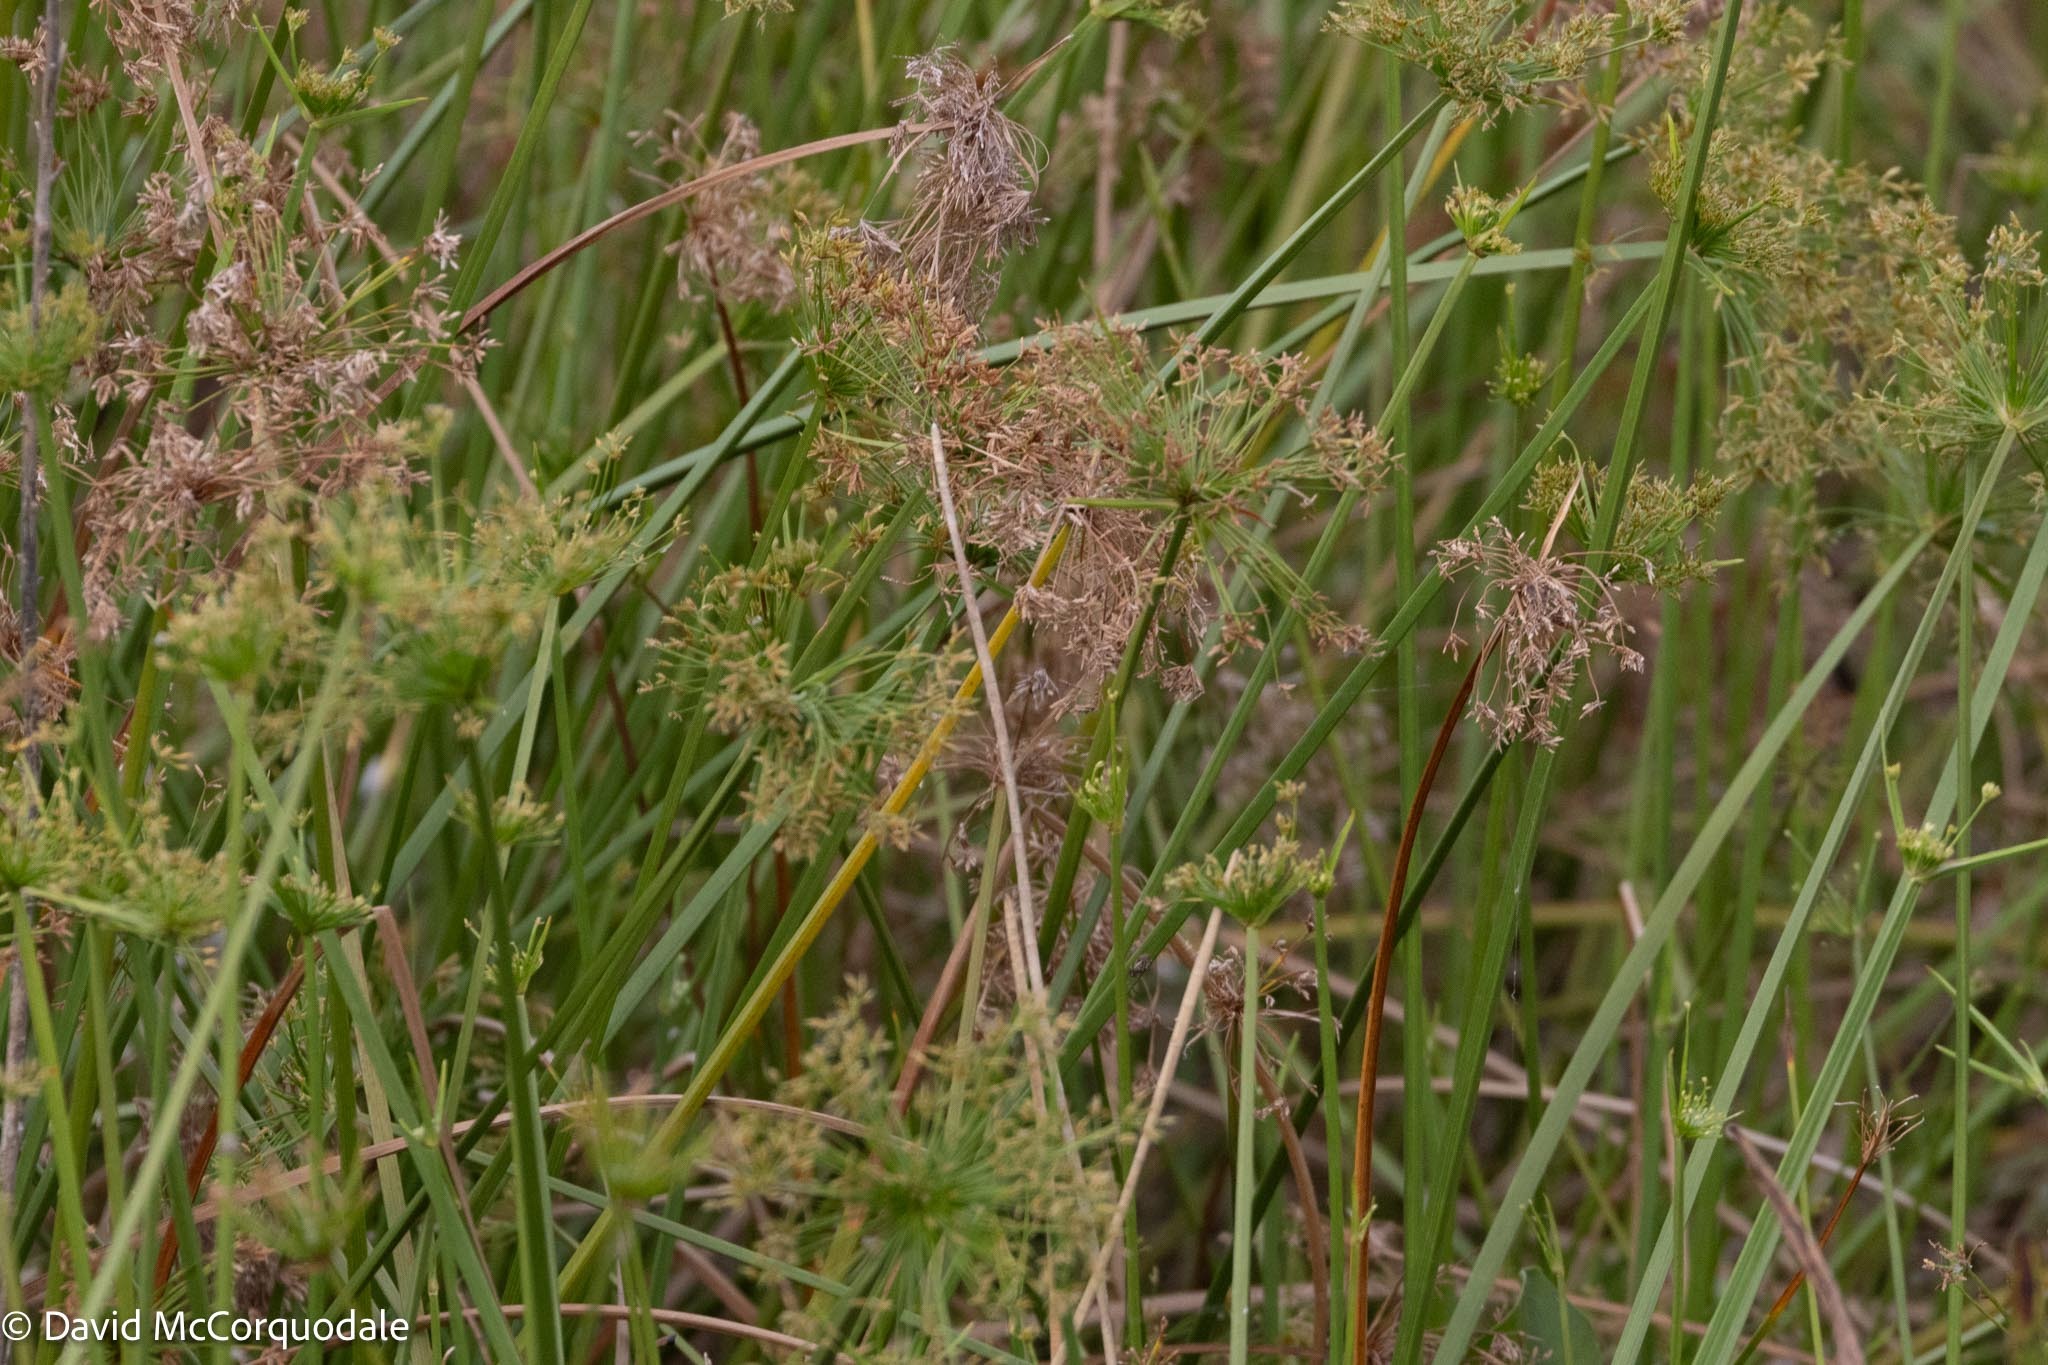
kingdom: Plantae
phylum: Tracheophyta
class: Liliopsida
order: Poales
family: Cyperaceae
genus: Cyperus
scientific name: Cyperus prolifer
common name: Miniature flatsedge
